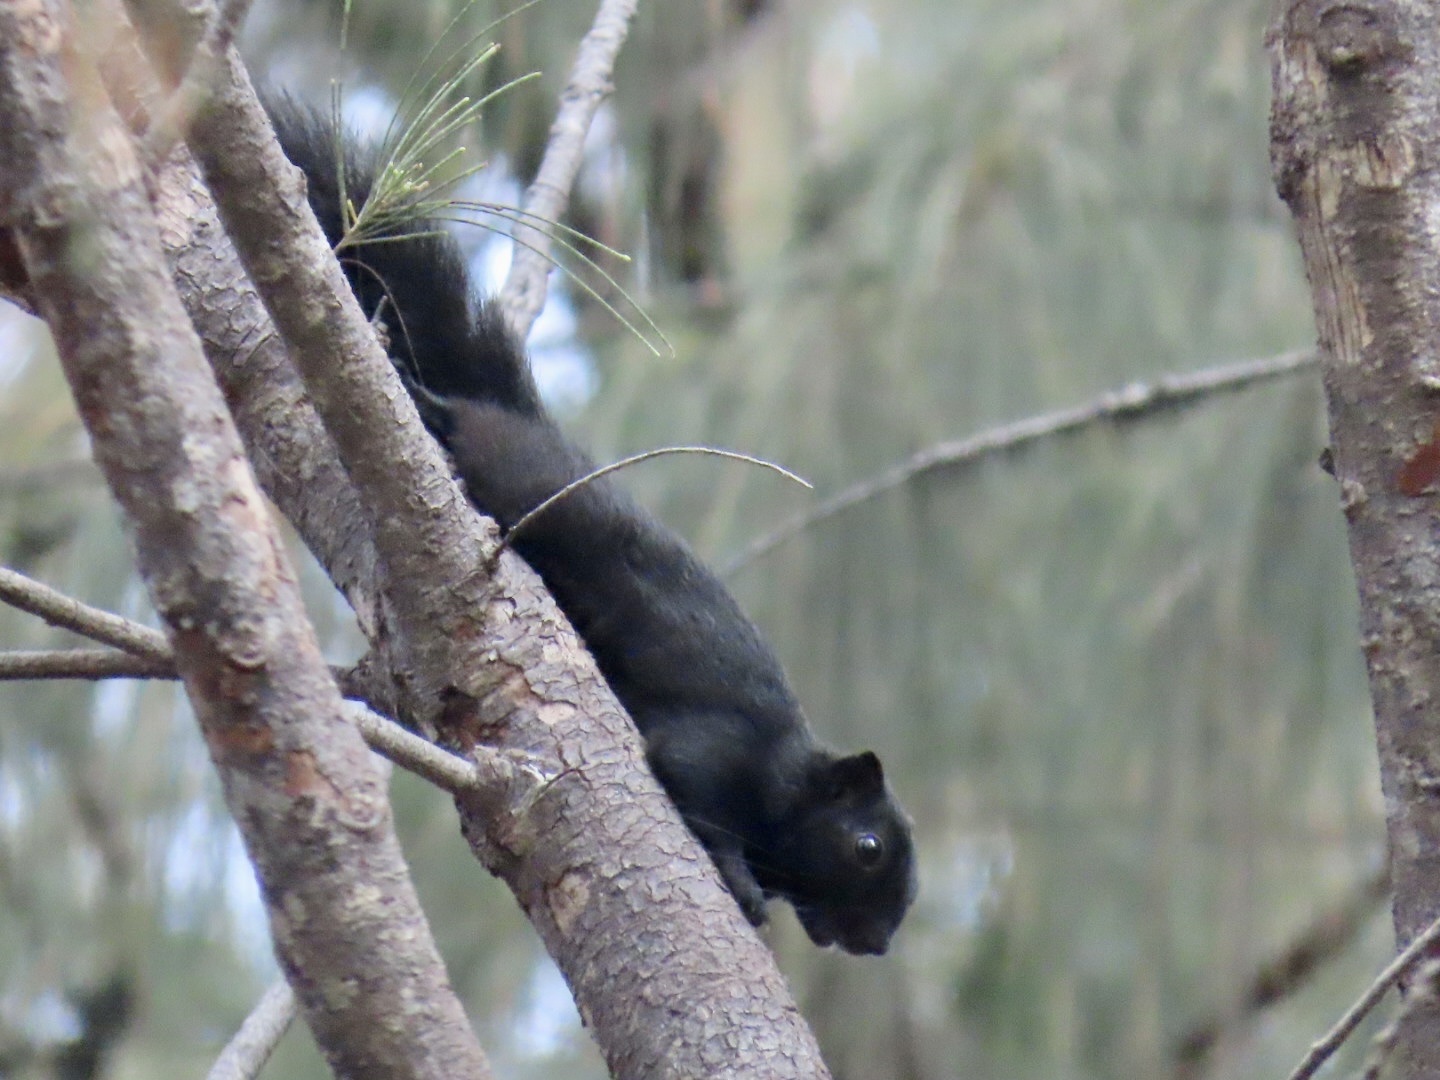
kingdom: Animalia
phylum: Chordata
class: Mammalia
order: Rodentia
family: Sciuridae
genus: Callosciurus
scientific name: Callosciurus finlaysonii
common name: Finlayson's squirrel
